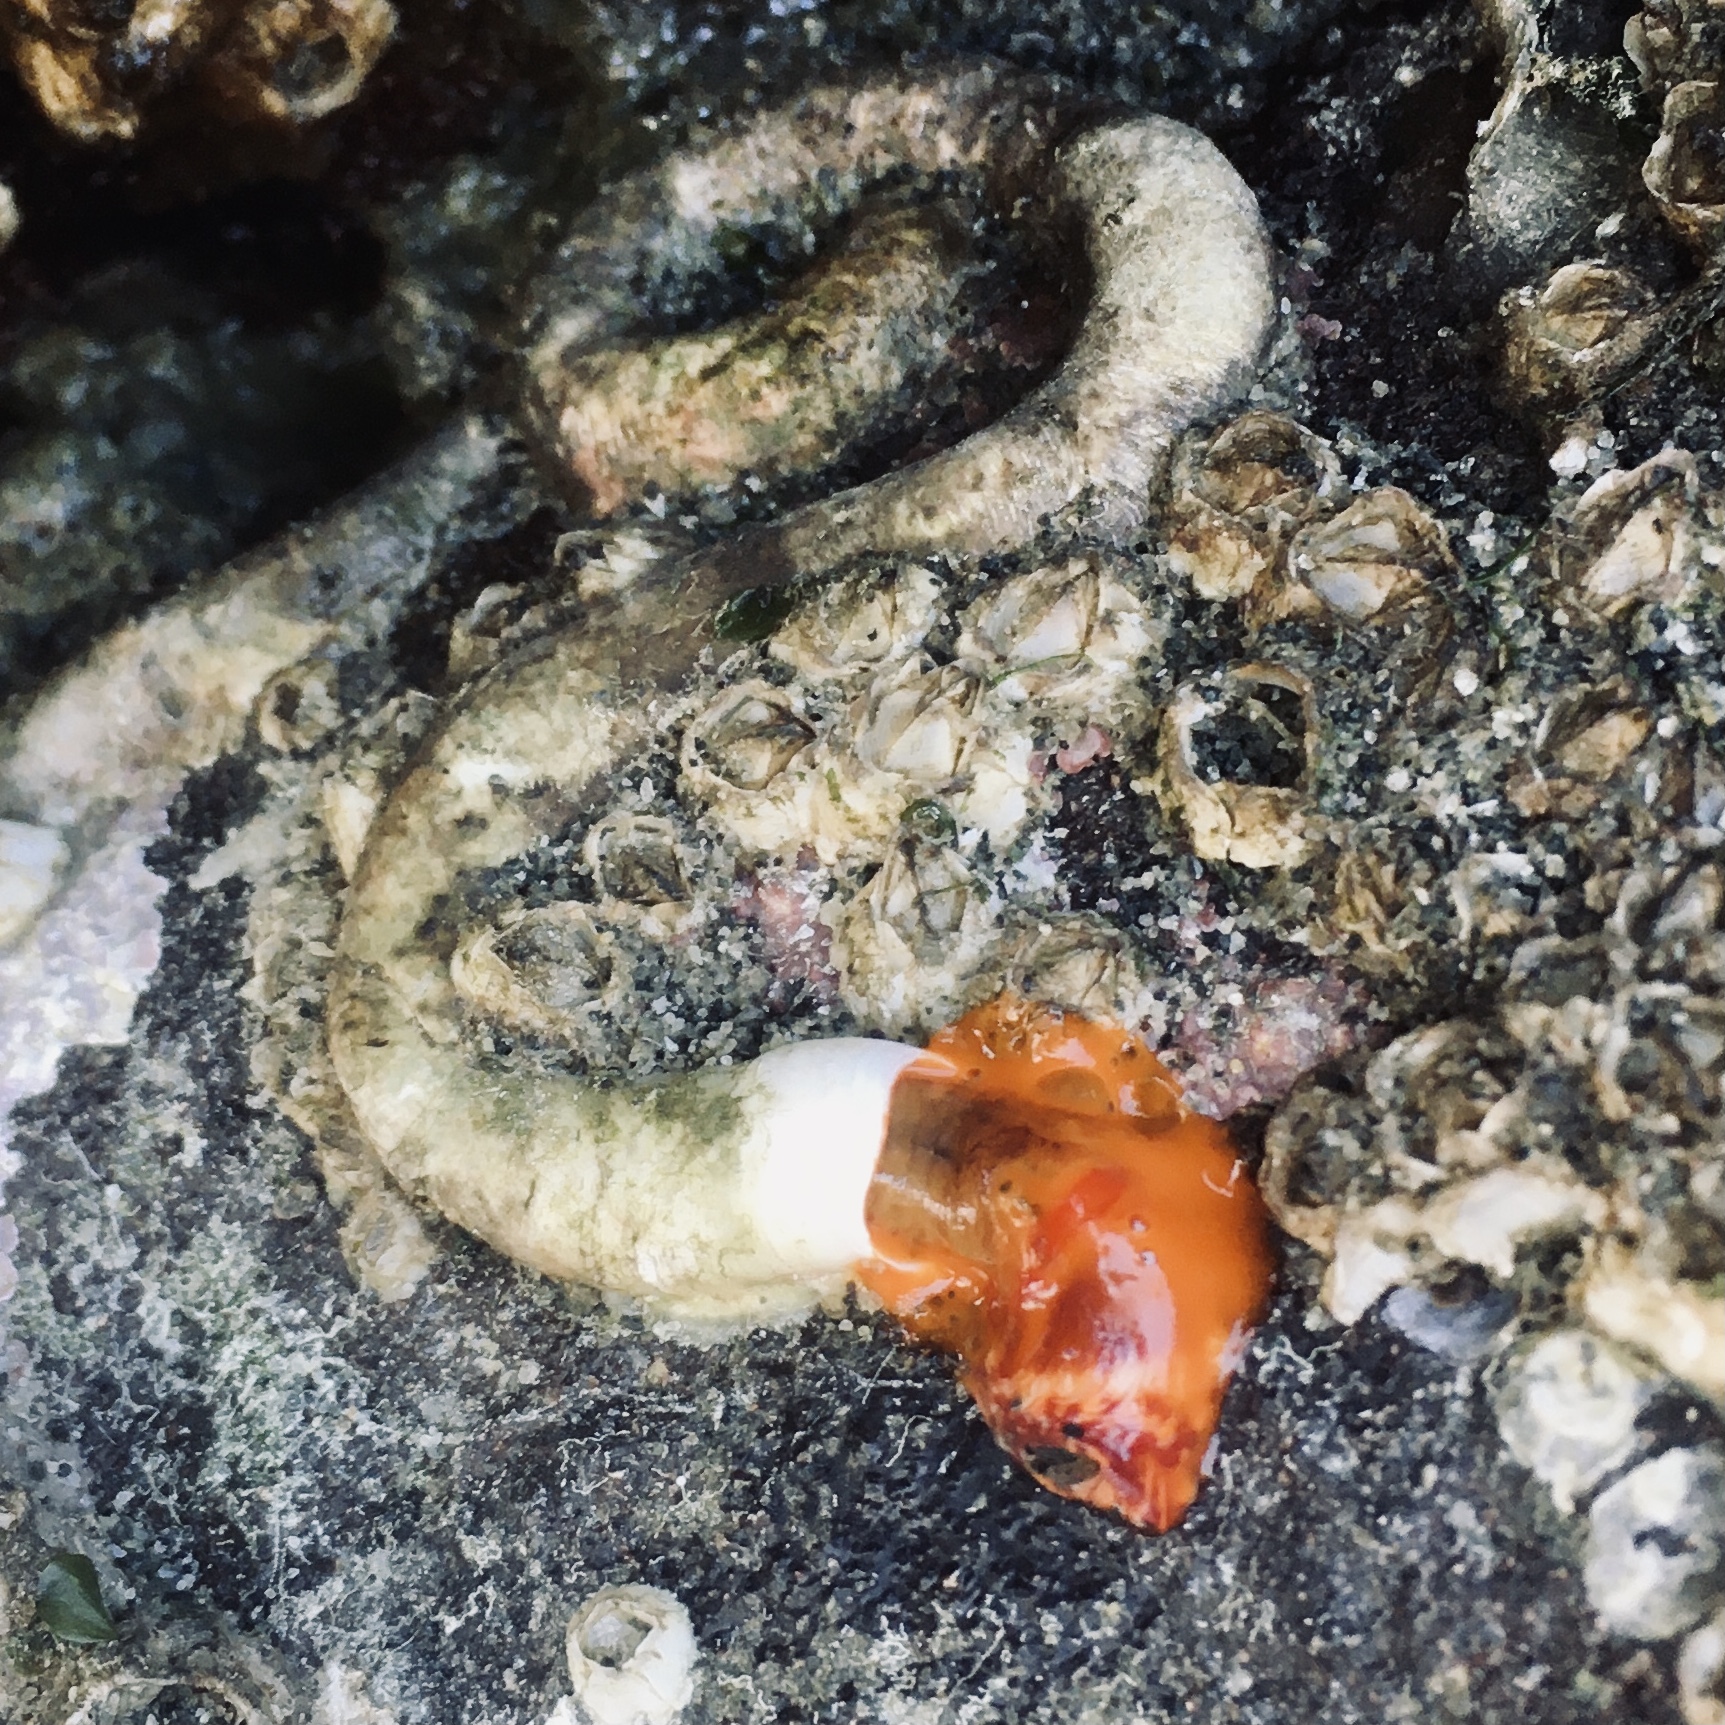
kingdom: Animalia
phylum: Annelida
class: Polychaeta
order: Sabellida
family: Serpulidae
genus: Serpula
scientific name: Serpula columbiana
